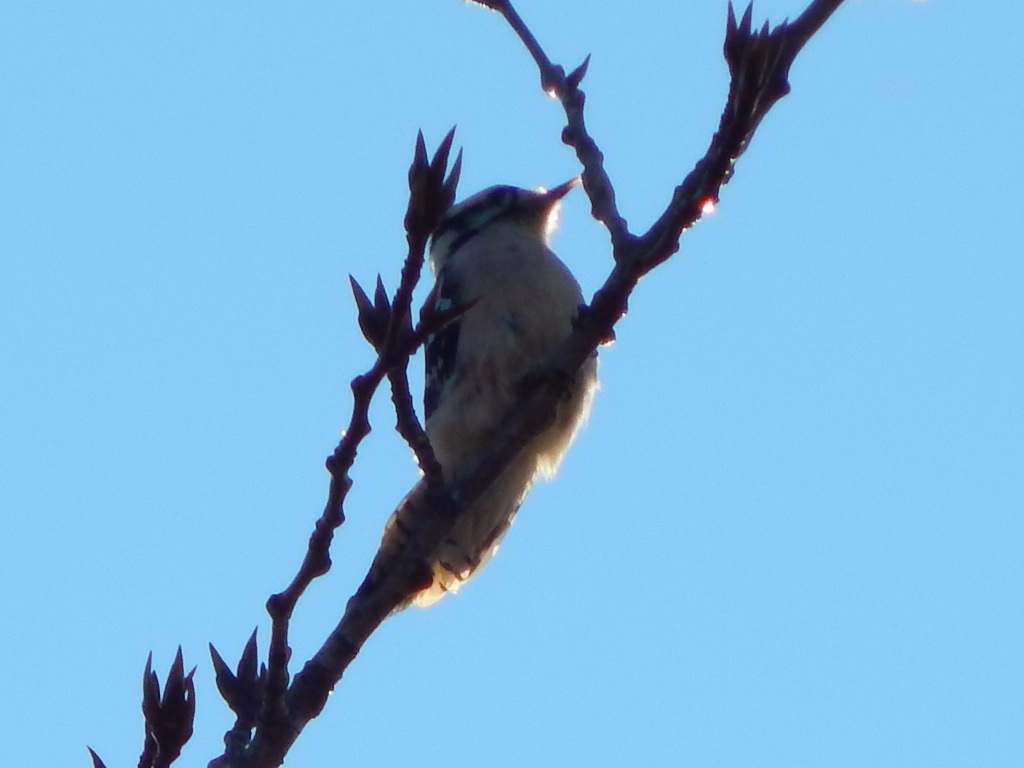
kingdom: Animalia
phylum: Chordata
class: Aves
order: Piciformes
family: Picidae
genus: Dryobates
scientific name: Dryobates pubescens
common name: Downy woodpecker
